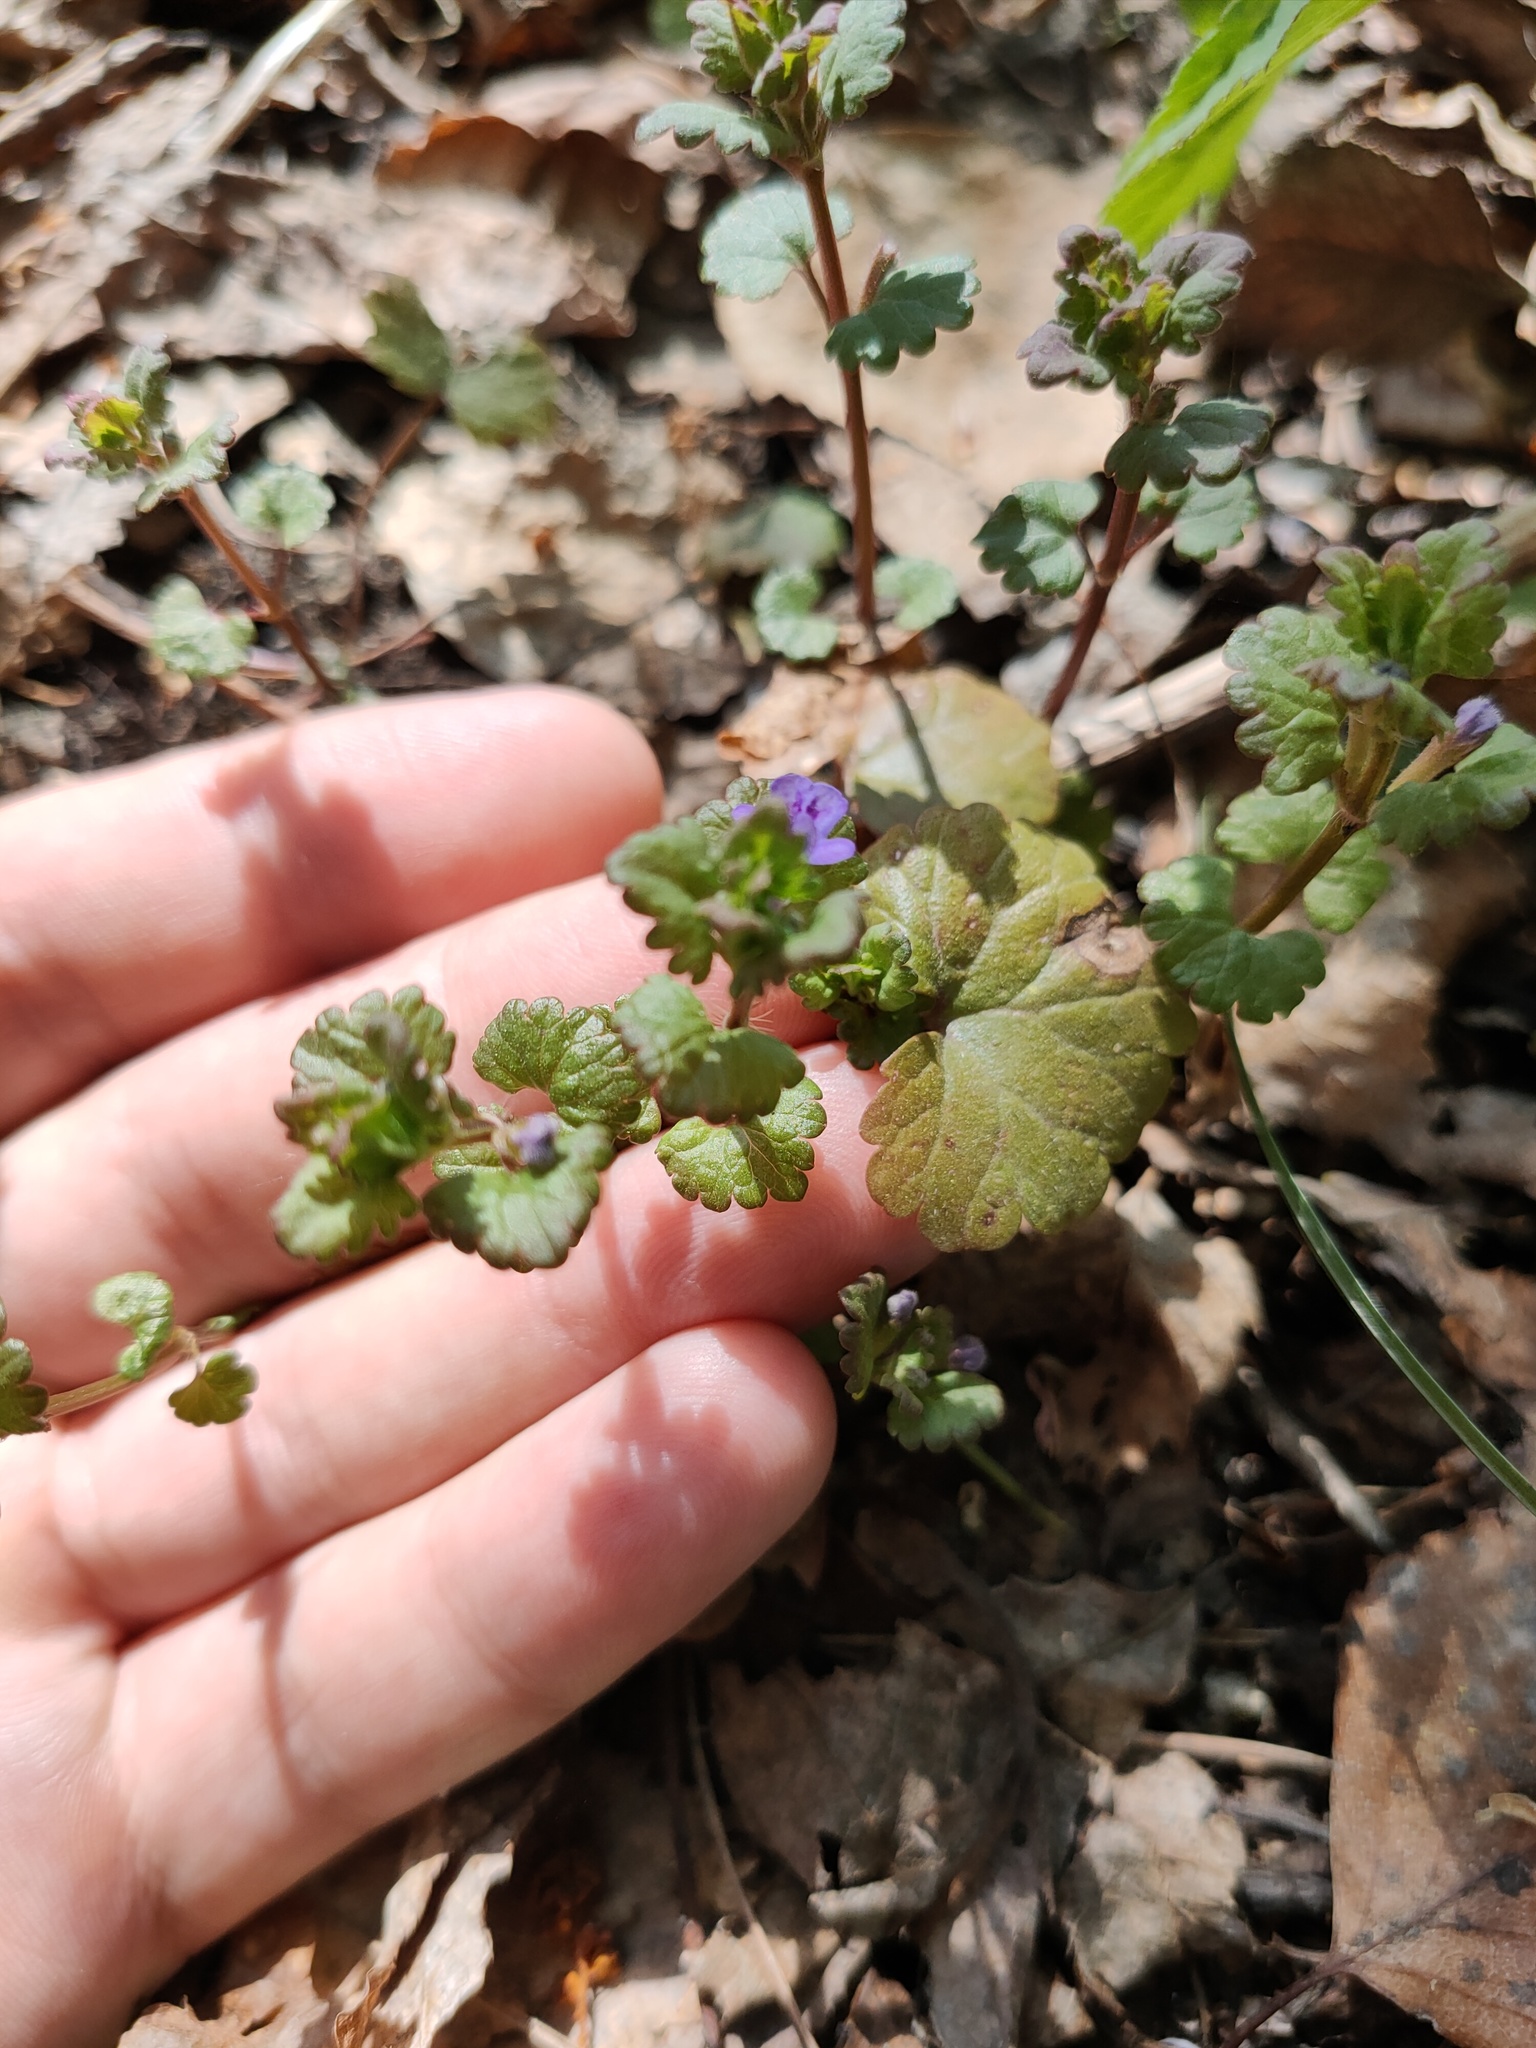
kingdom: Plantae
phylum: Tracheophyta
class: Magnoliopsida
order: Lamiales
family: Lamiaceae
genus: Glechoma
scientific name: Glechoma hederacea
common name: Ground ivy
